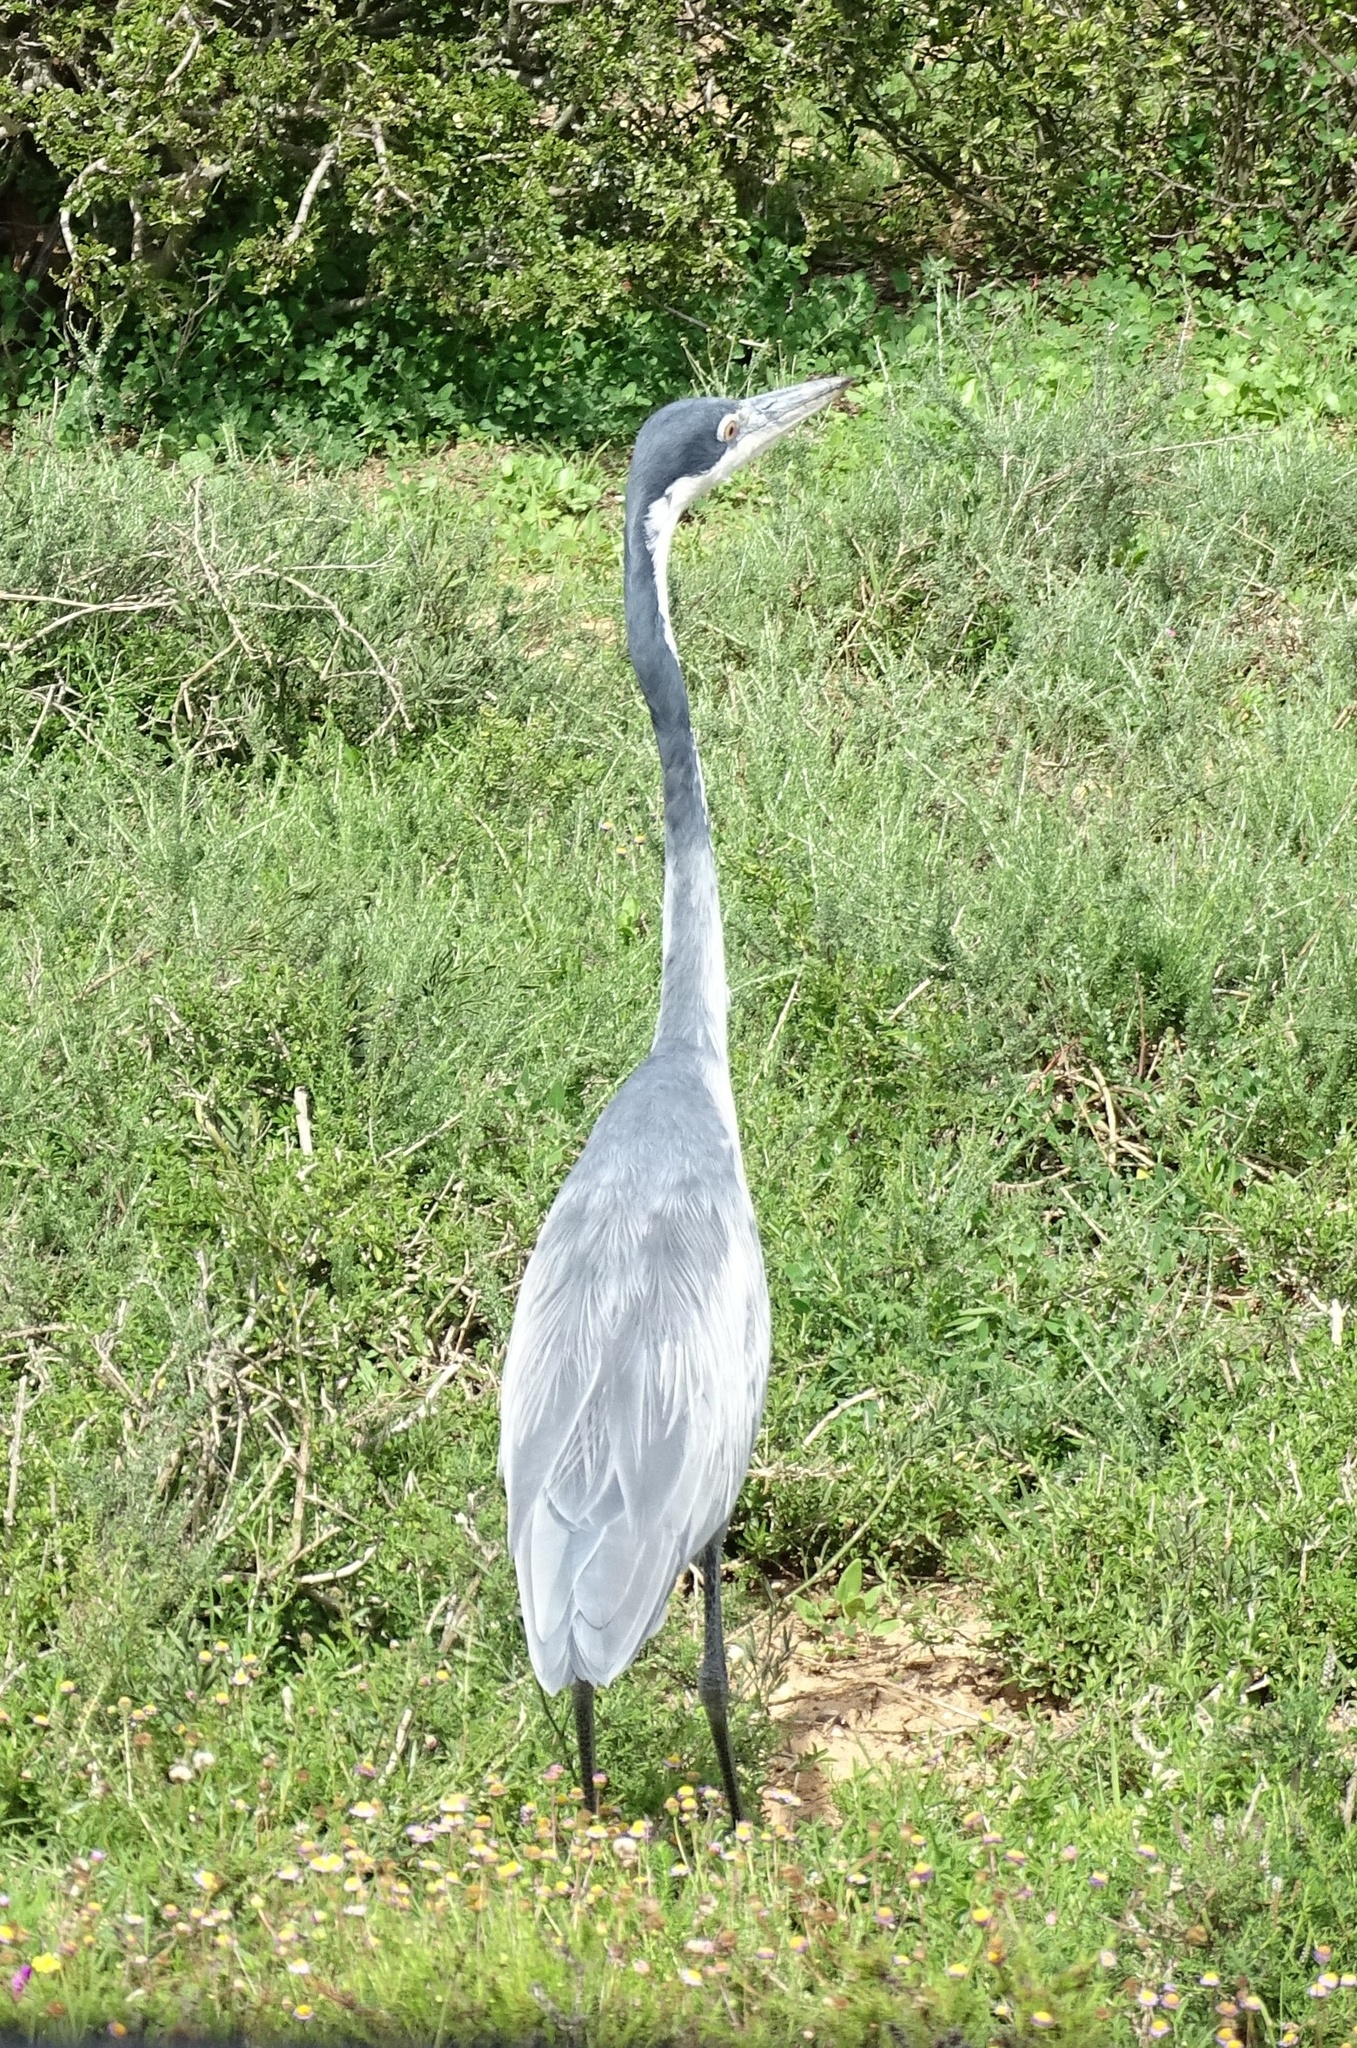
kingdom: Animalia
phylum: Chordata
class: Aves
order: Pelecaniformes
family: Ardeidae
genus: Ardea
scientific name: Ardea melanocephala
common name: Black-headed heron
